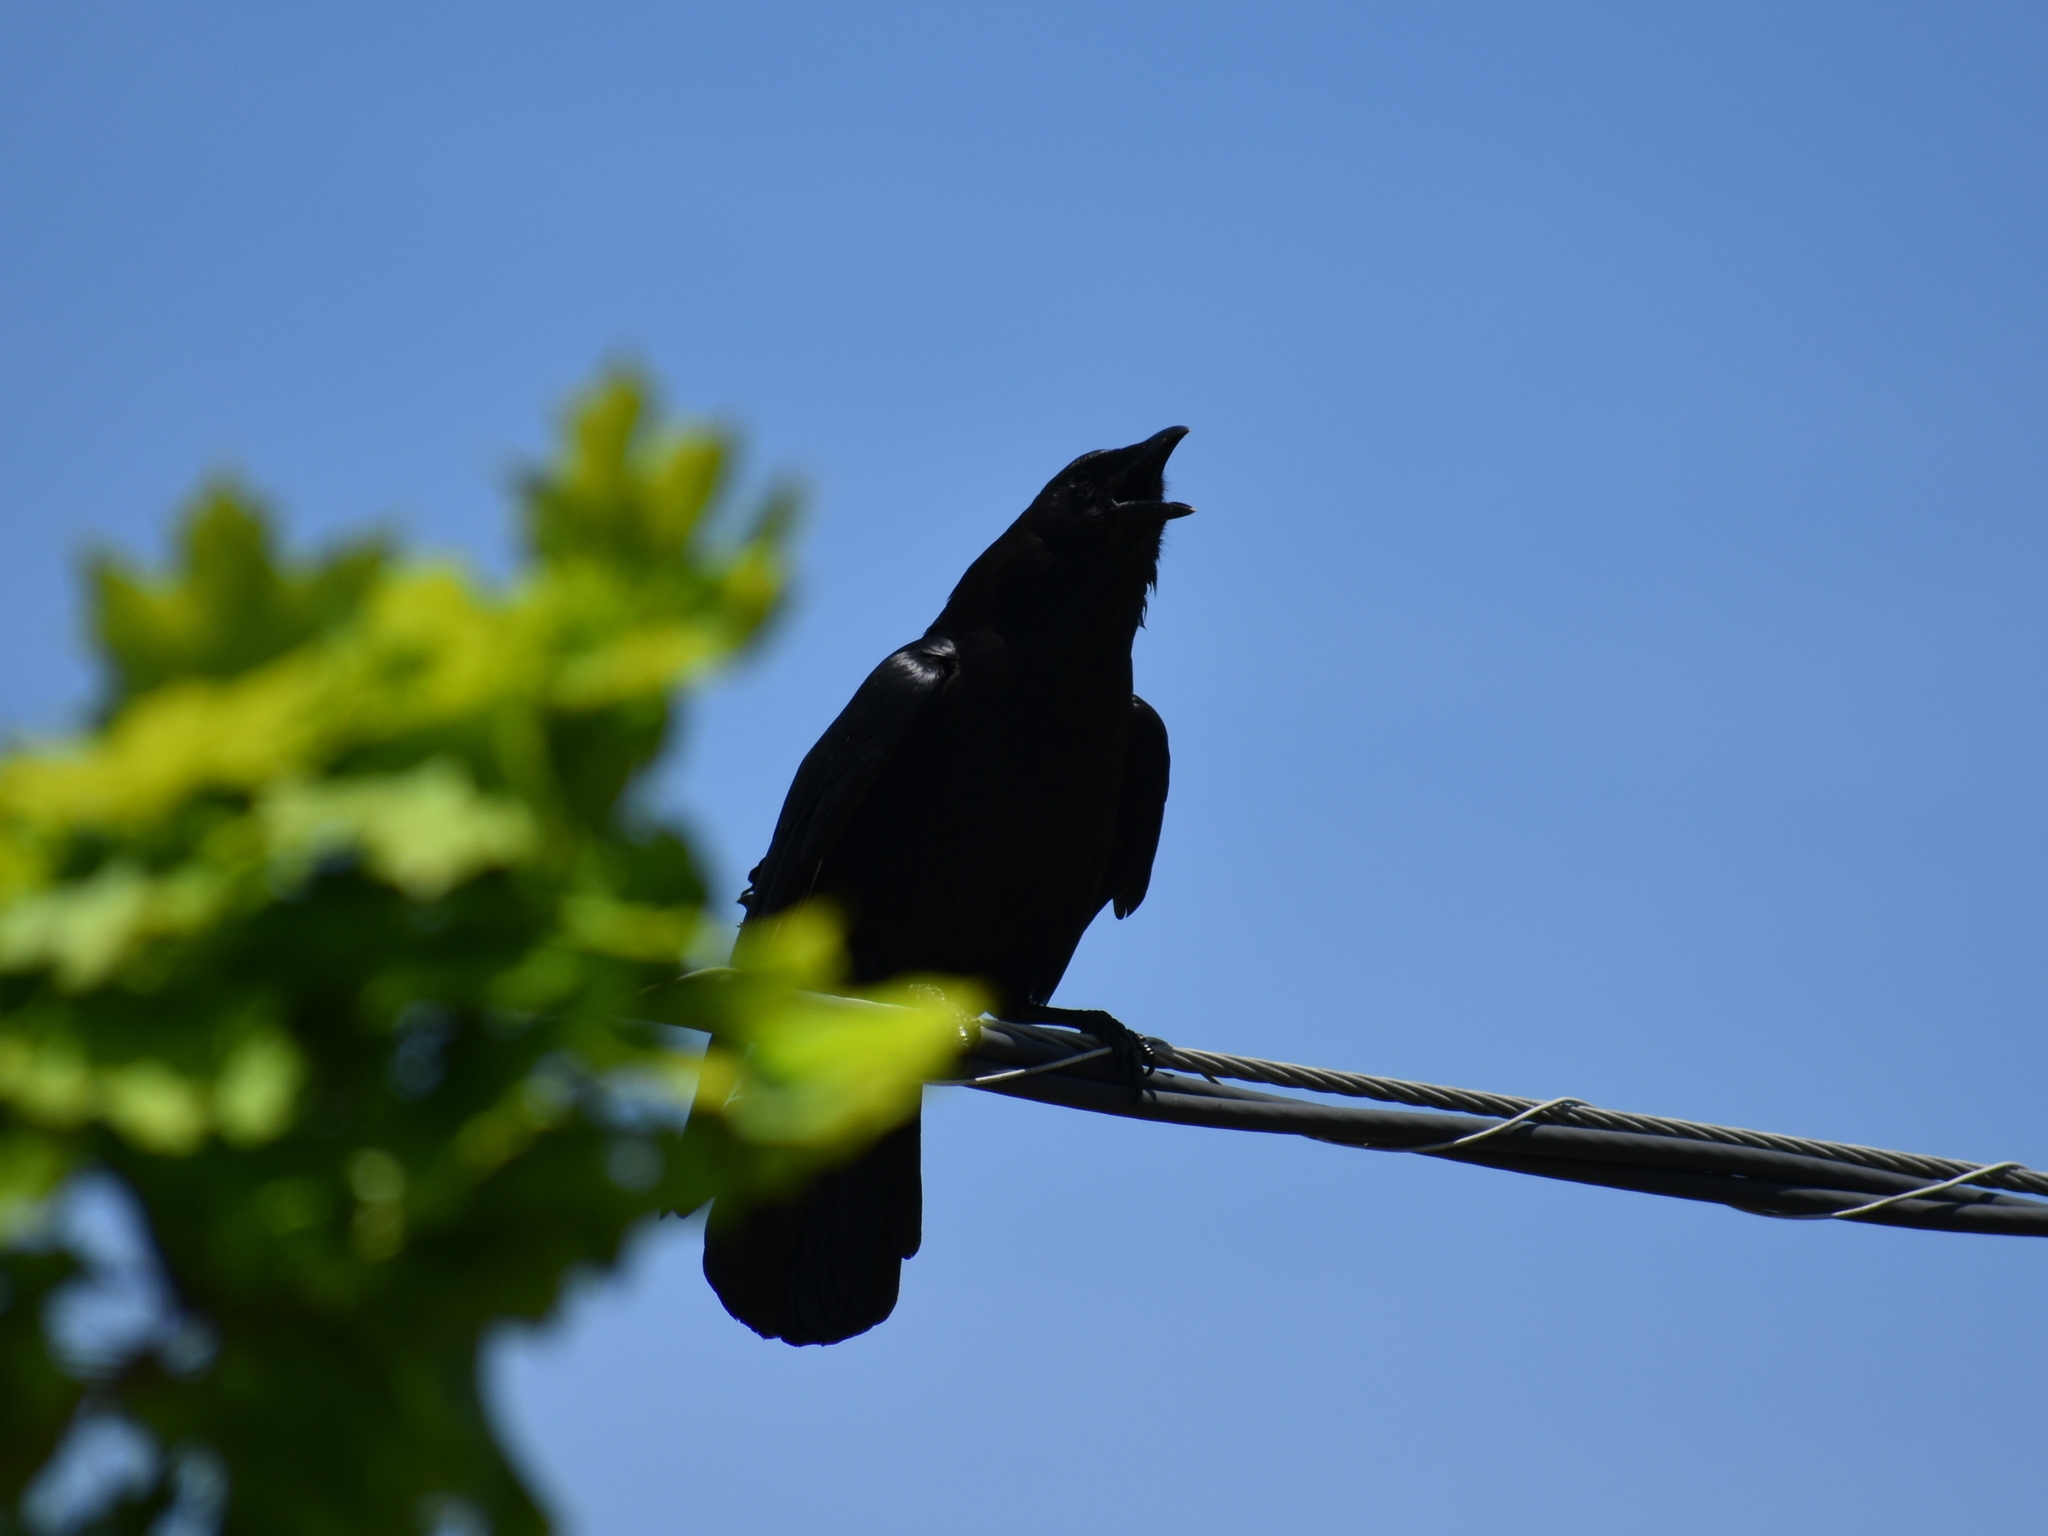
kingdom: Animalia
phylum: Chordata
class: Aves
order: Passeriformes
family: Corvidae
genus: Corvus
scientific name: Corvus brachyrhynchos
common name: American crow
